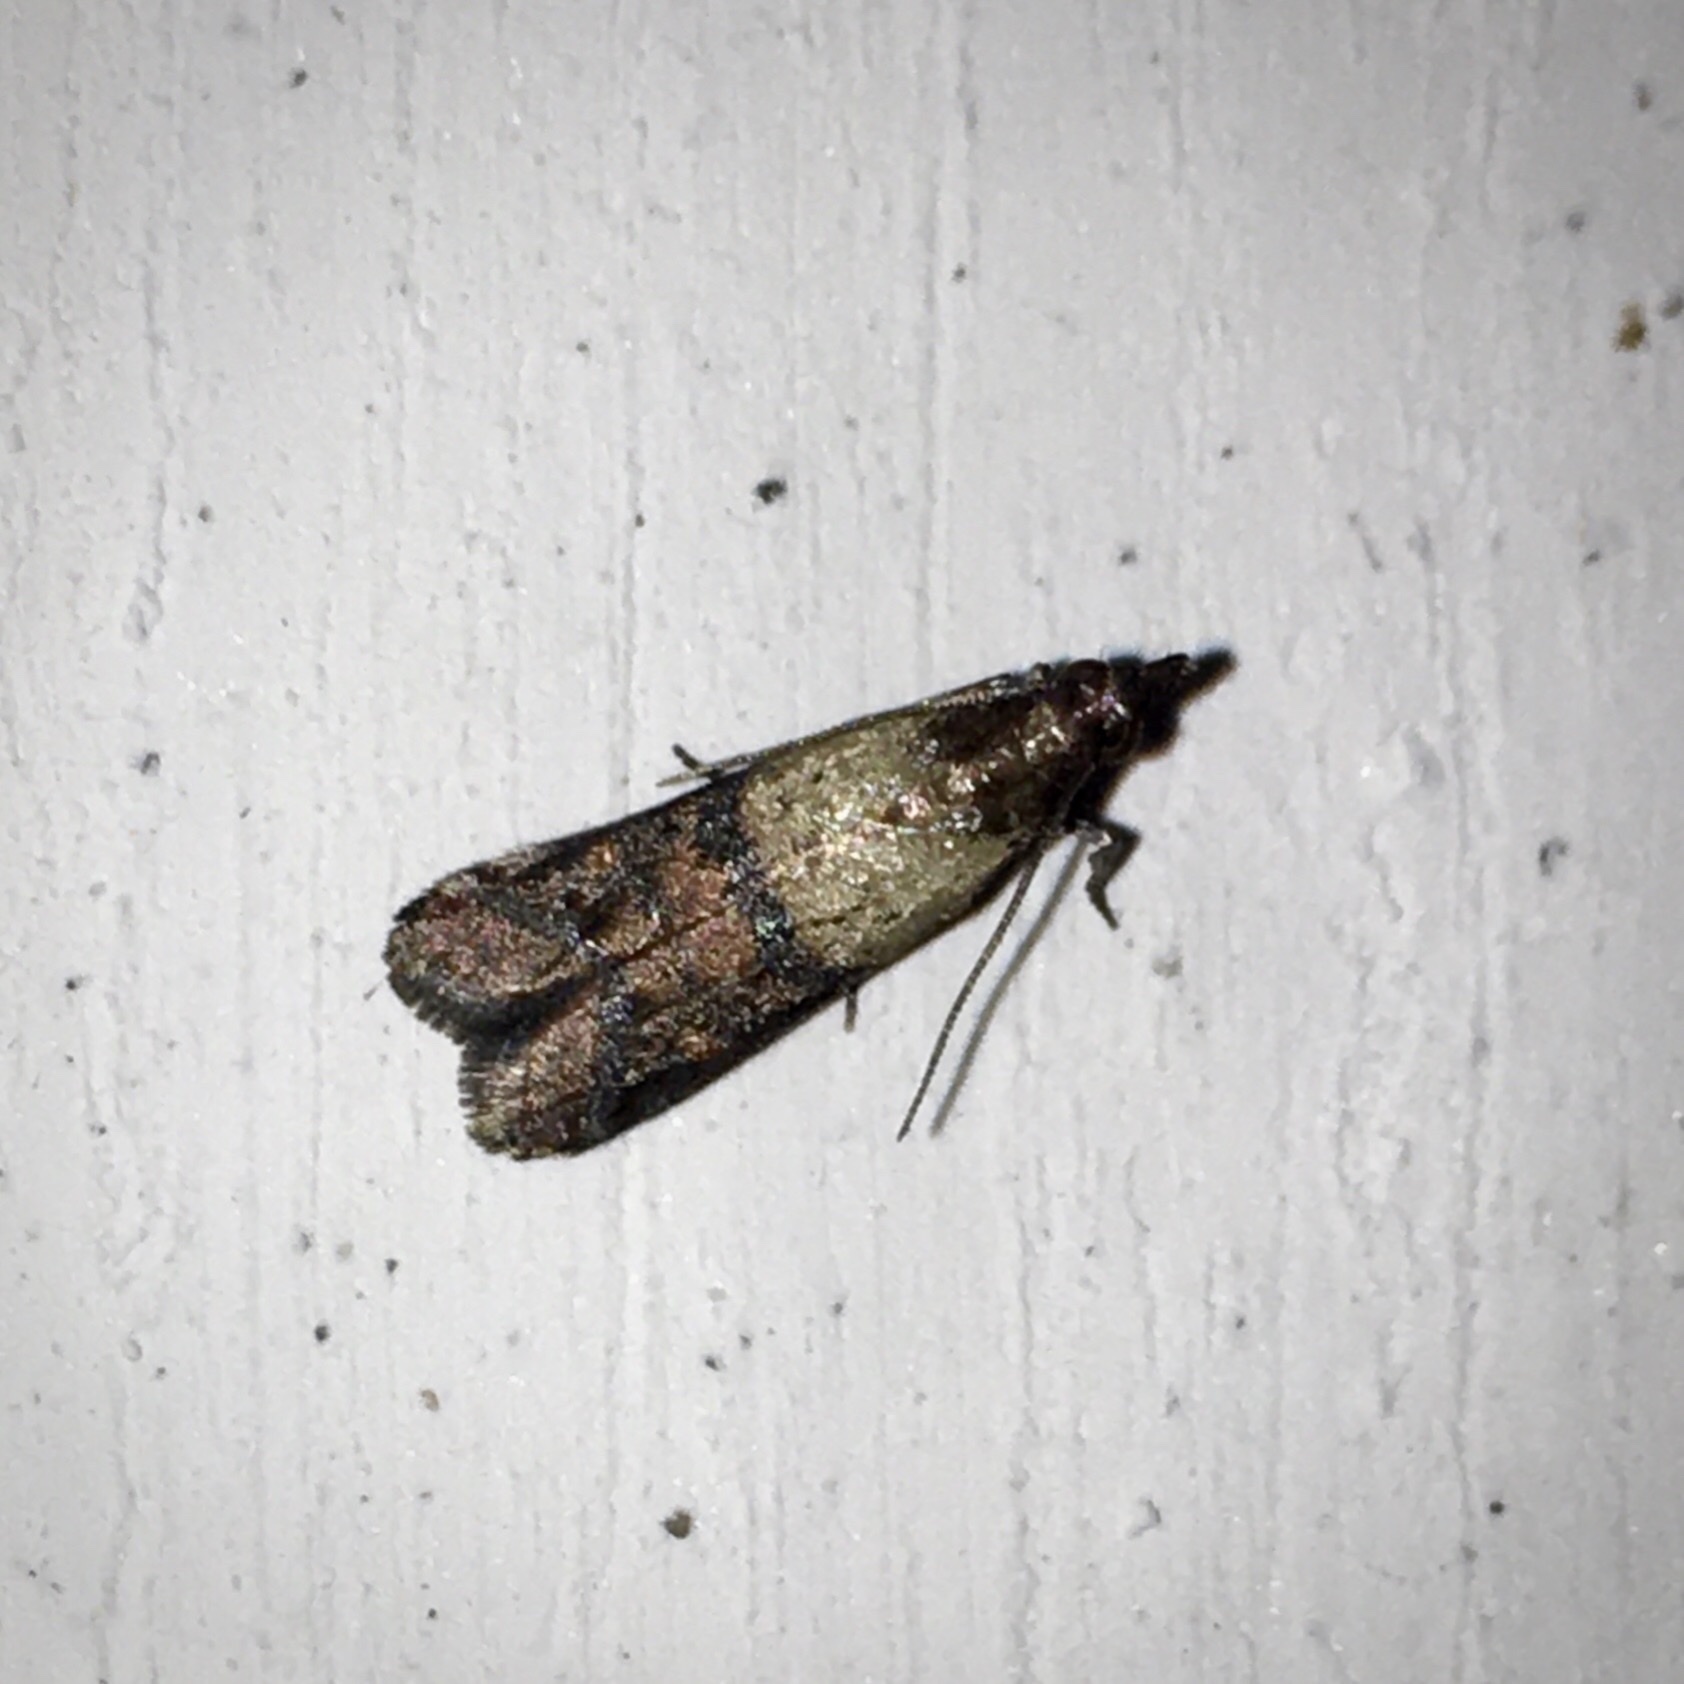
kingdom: Animalia
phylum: Arthropoda
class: Insecta
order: Lepidoptera
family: Pyralidae
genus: Plodia
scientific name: Plodia interpunctella
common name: Indian meal moth
